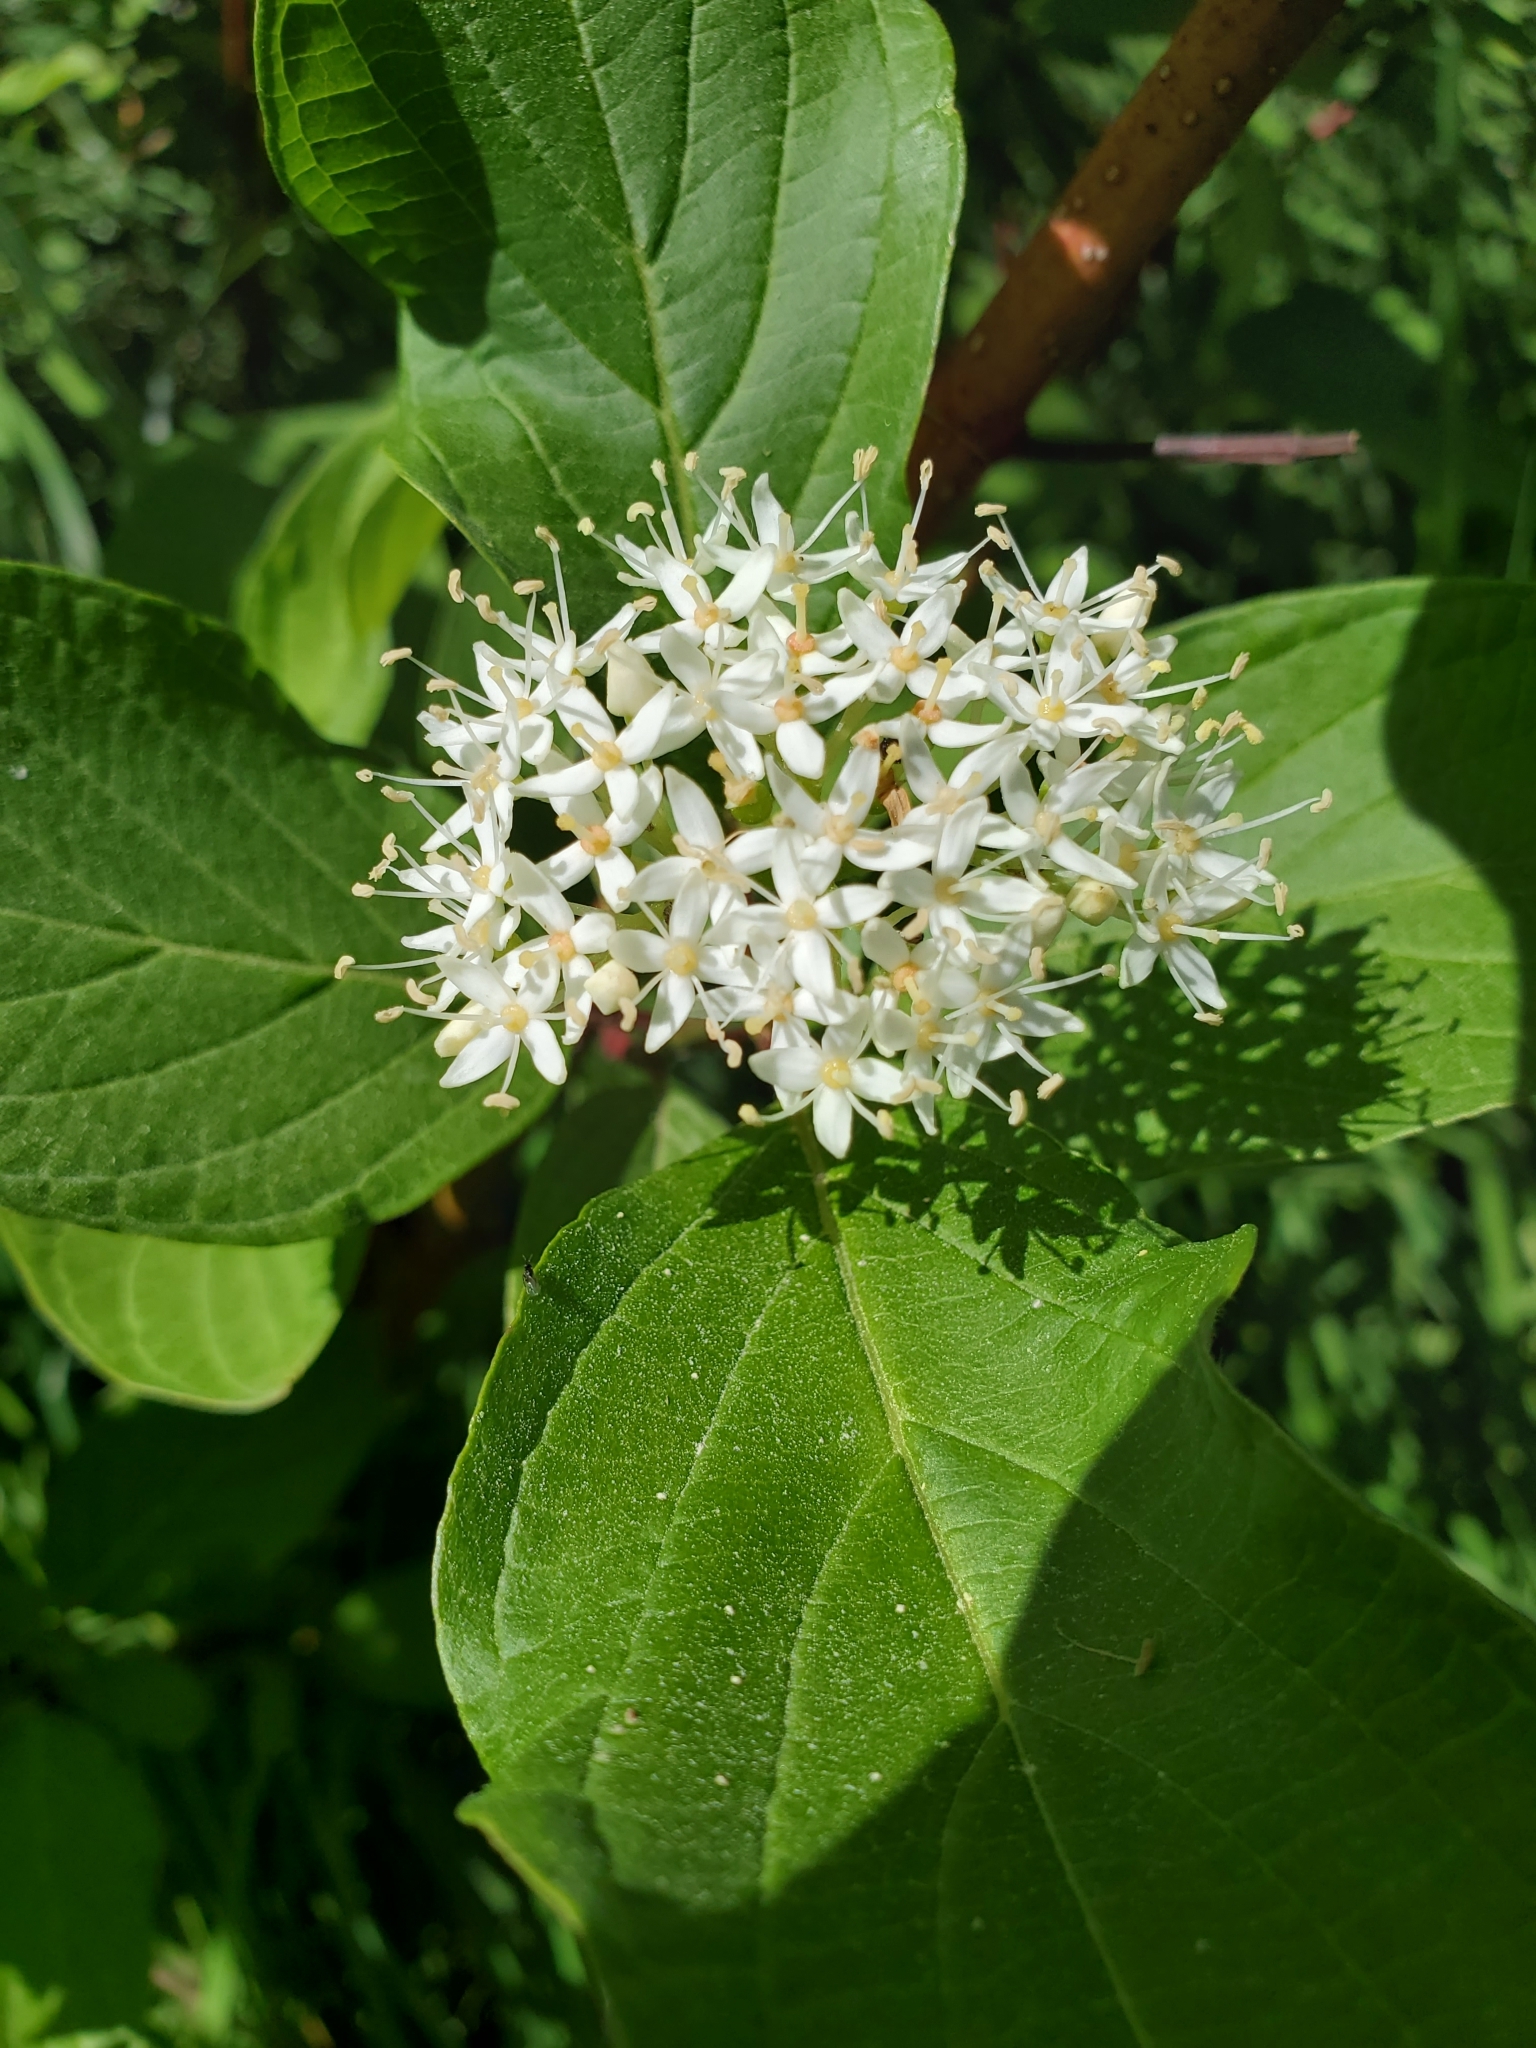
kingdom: Plantae
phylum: Tracheophyta
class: Magnoliopsida
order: Cornales
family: Cornaceae
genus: Cornus
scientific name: Cornus sericea
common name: Red-osier dogwood
